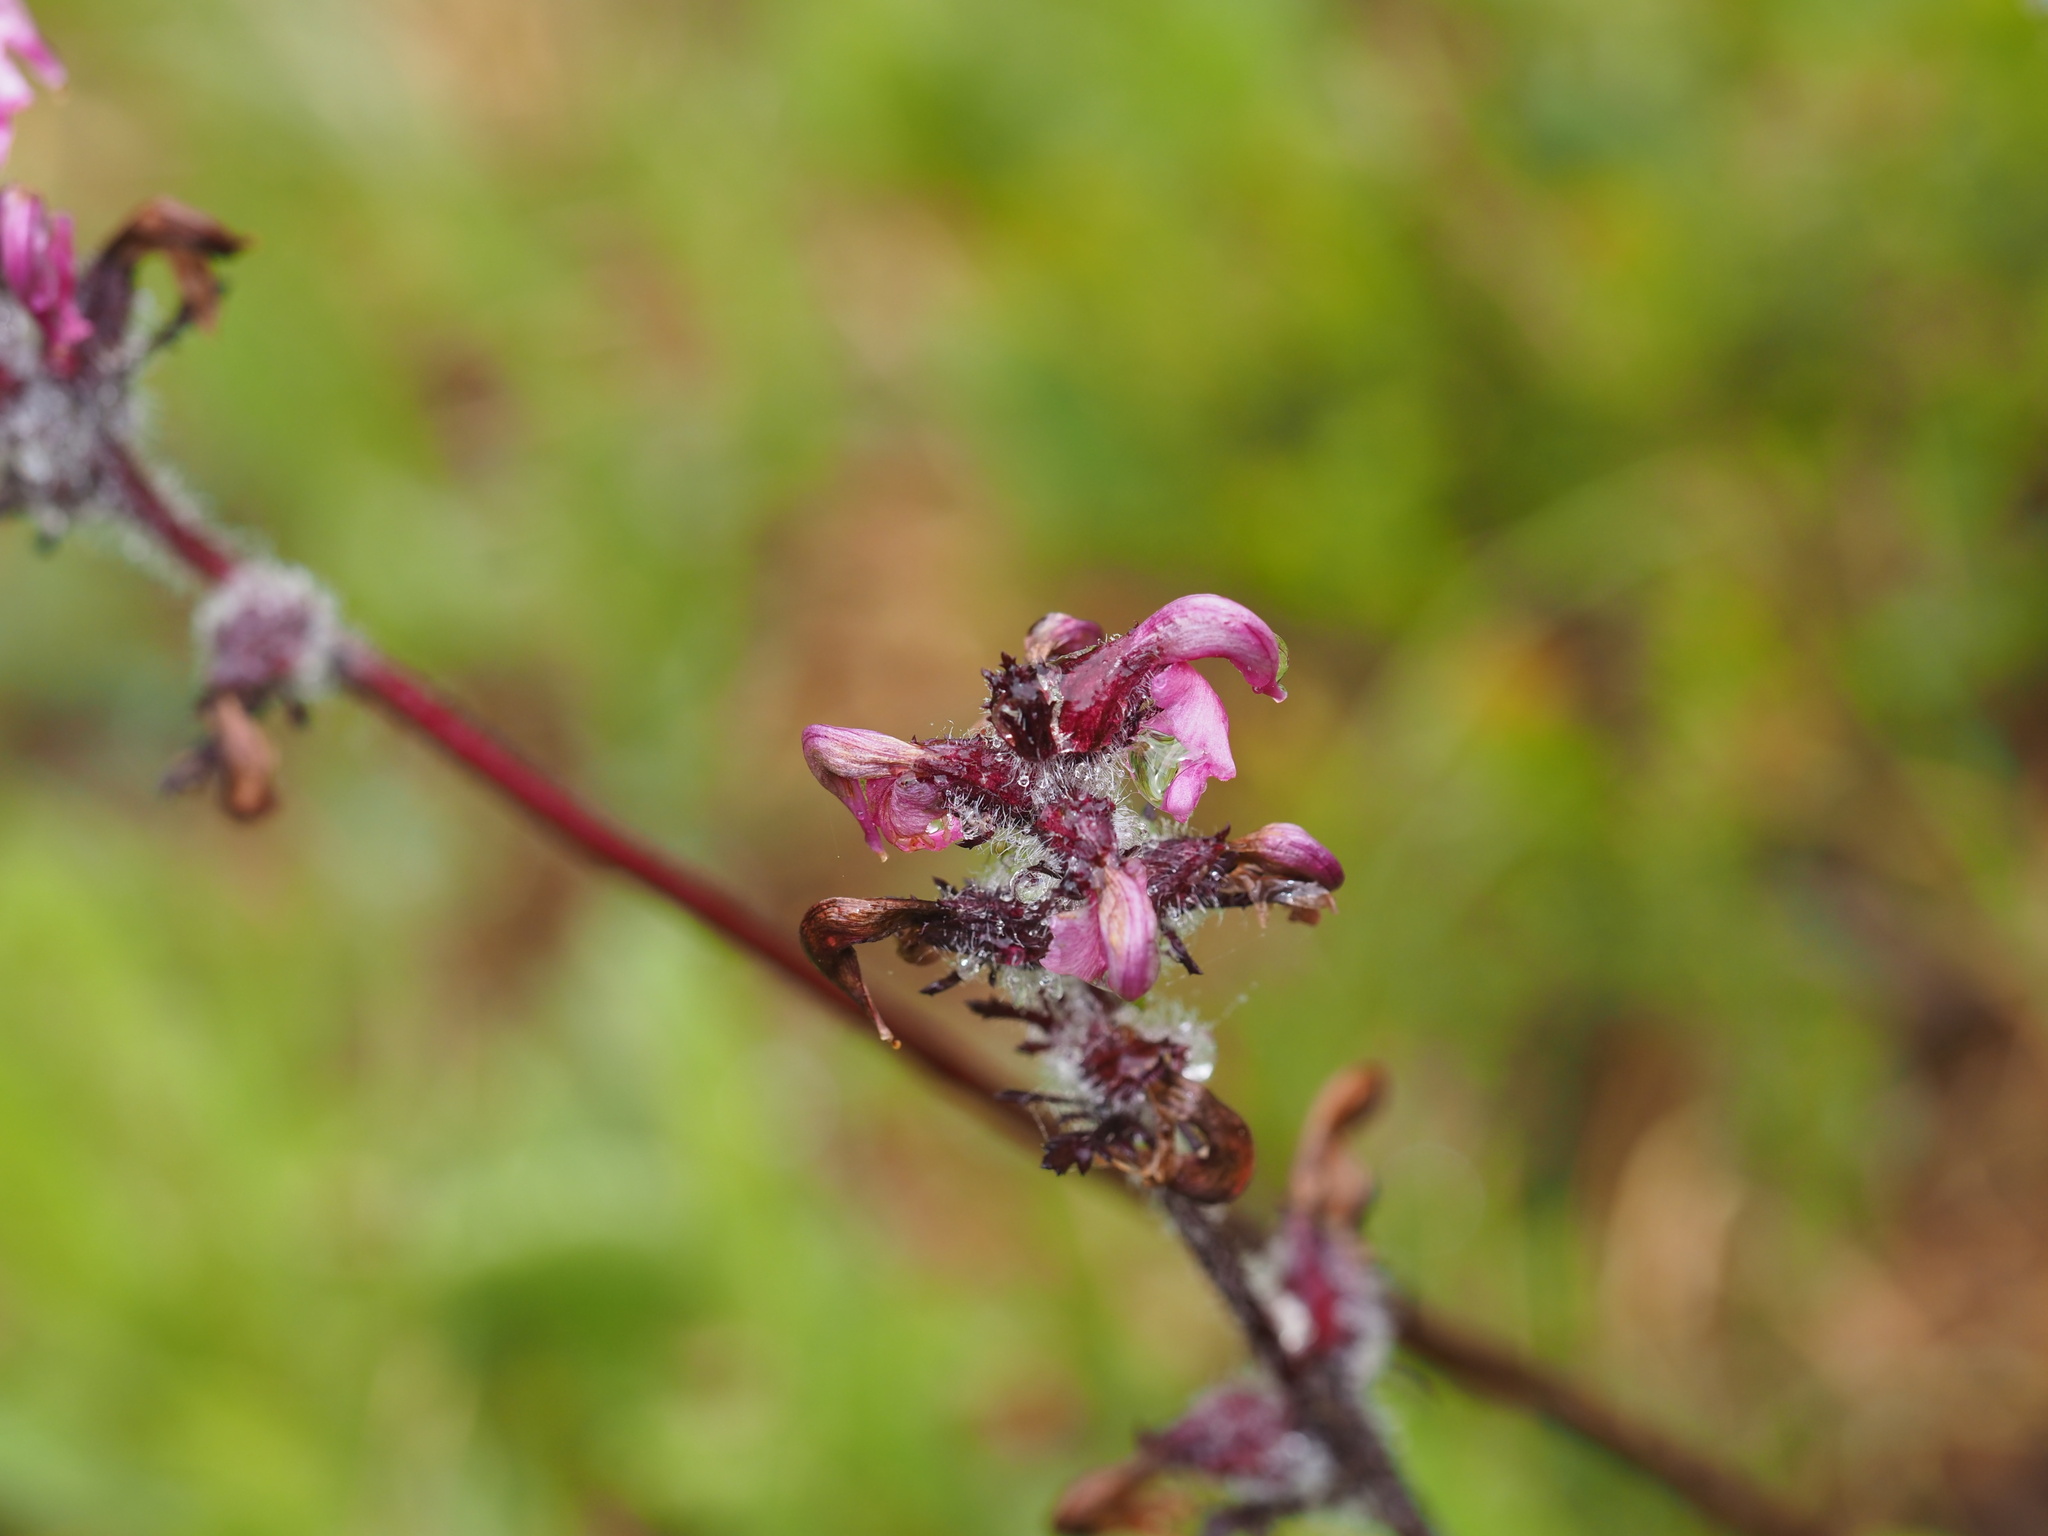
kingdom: Plantae
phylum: Tracheophyta
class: Magnoliopsida
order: Lamiales
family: Orobanchaceae
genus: Pedicularis
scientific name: Pedicularis ornithorhynchos
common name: Bird's-beak lousewort
